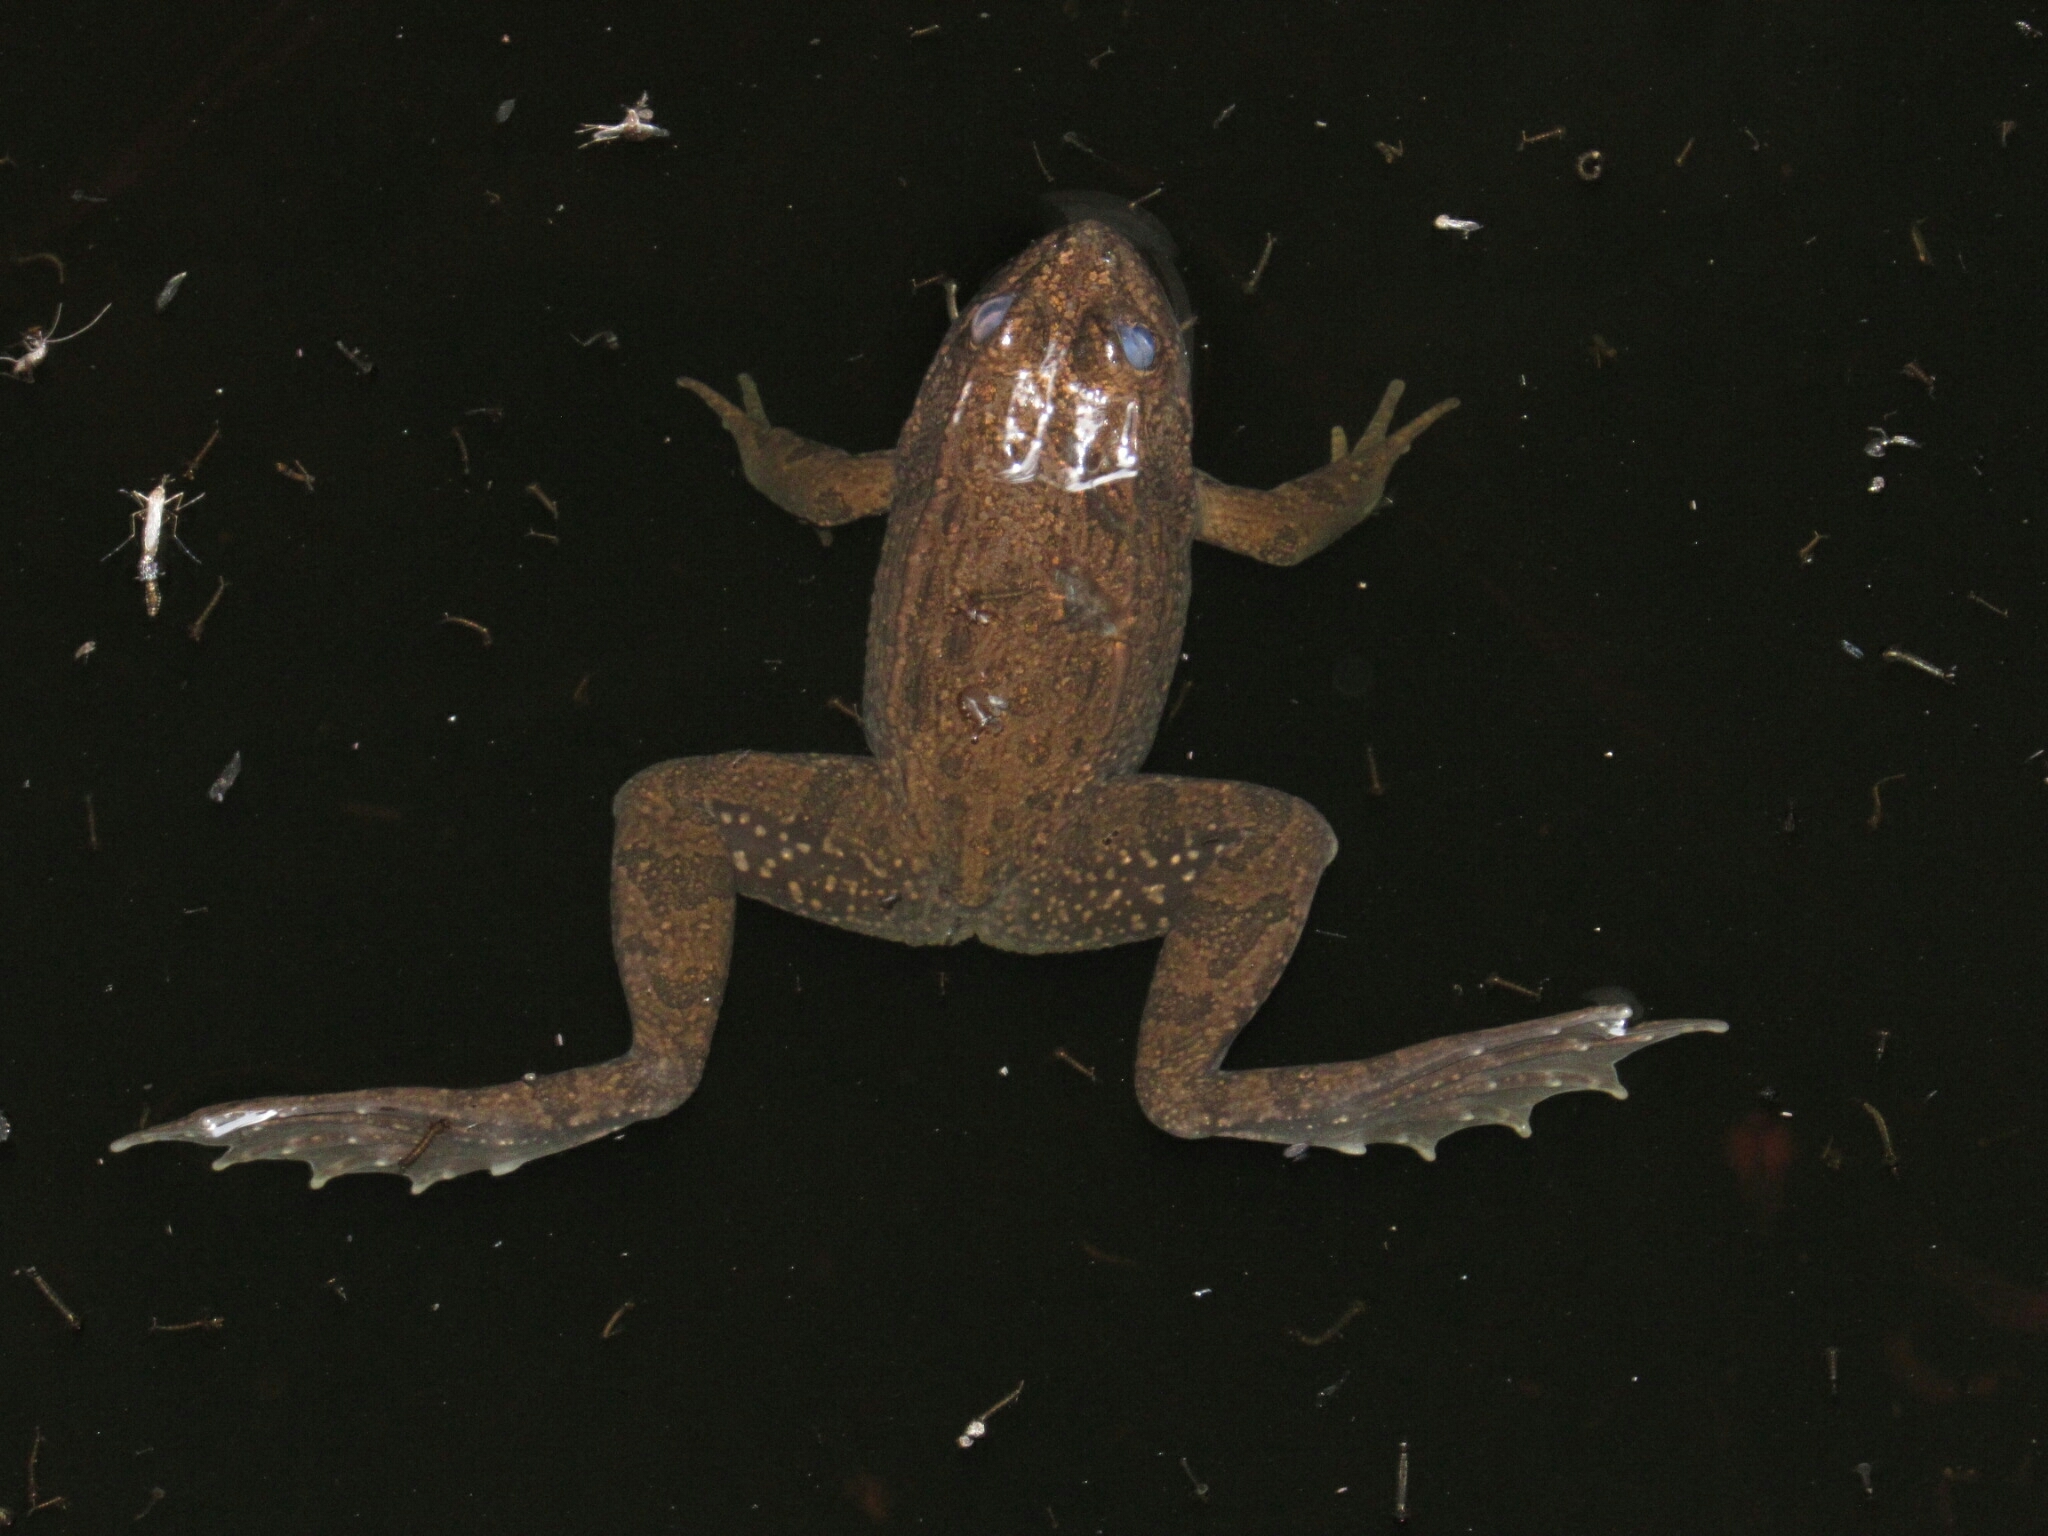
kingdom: Animalia
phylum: Chordata
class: Amphibia
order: Anura
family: Ranidae
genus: Lithobates
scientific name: Lithobates megapoda
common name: Big-footed leopard frog
